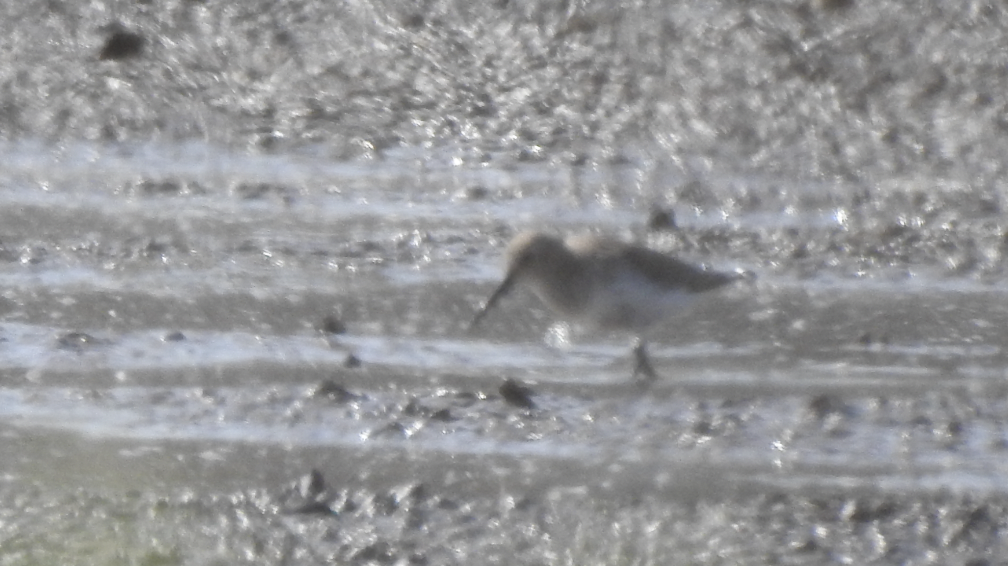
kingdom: Animalia
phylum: Chordata
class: Aves
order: Charadriiformes
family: Scolopacidae
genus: Calidris
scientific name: Calidris alpina
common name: Dunlin
